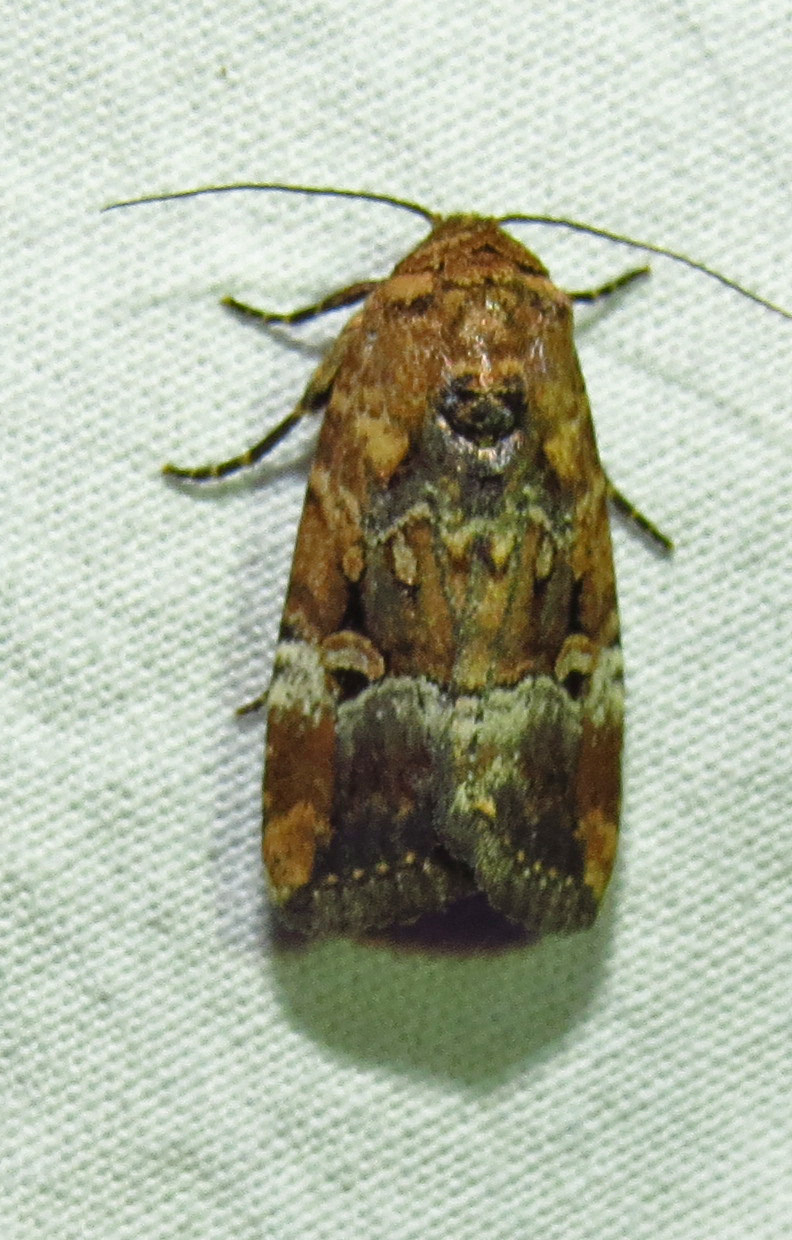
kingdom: Animalia
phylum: Arthropoda
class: Insecta
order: Lepidoptera
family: Noctuidae
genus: Elaphria
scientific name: Elaphria chalcedonia
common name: Chalcedony midget
